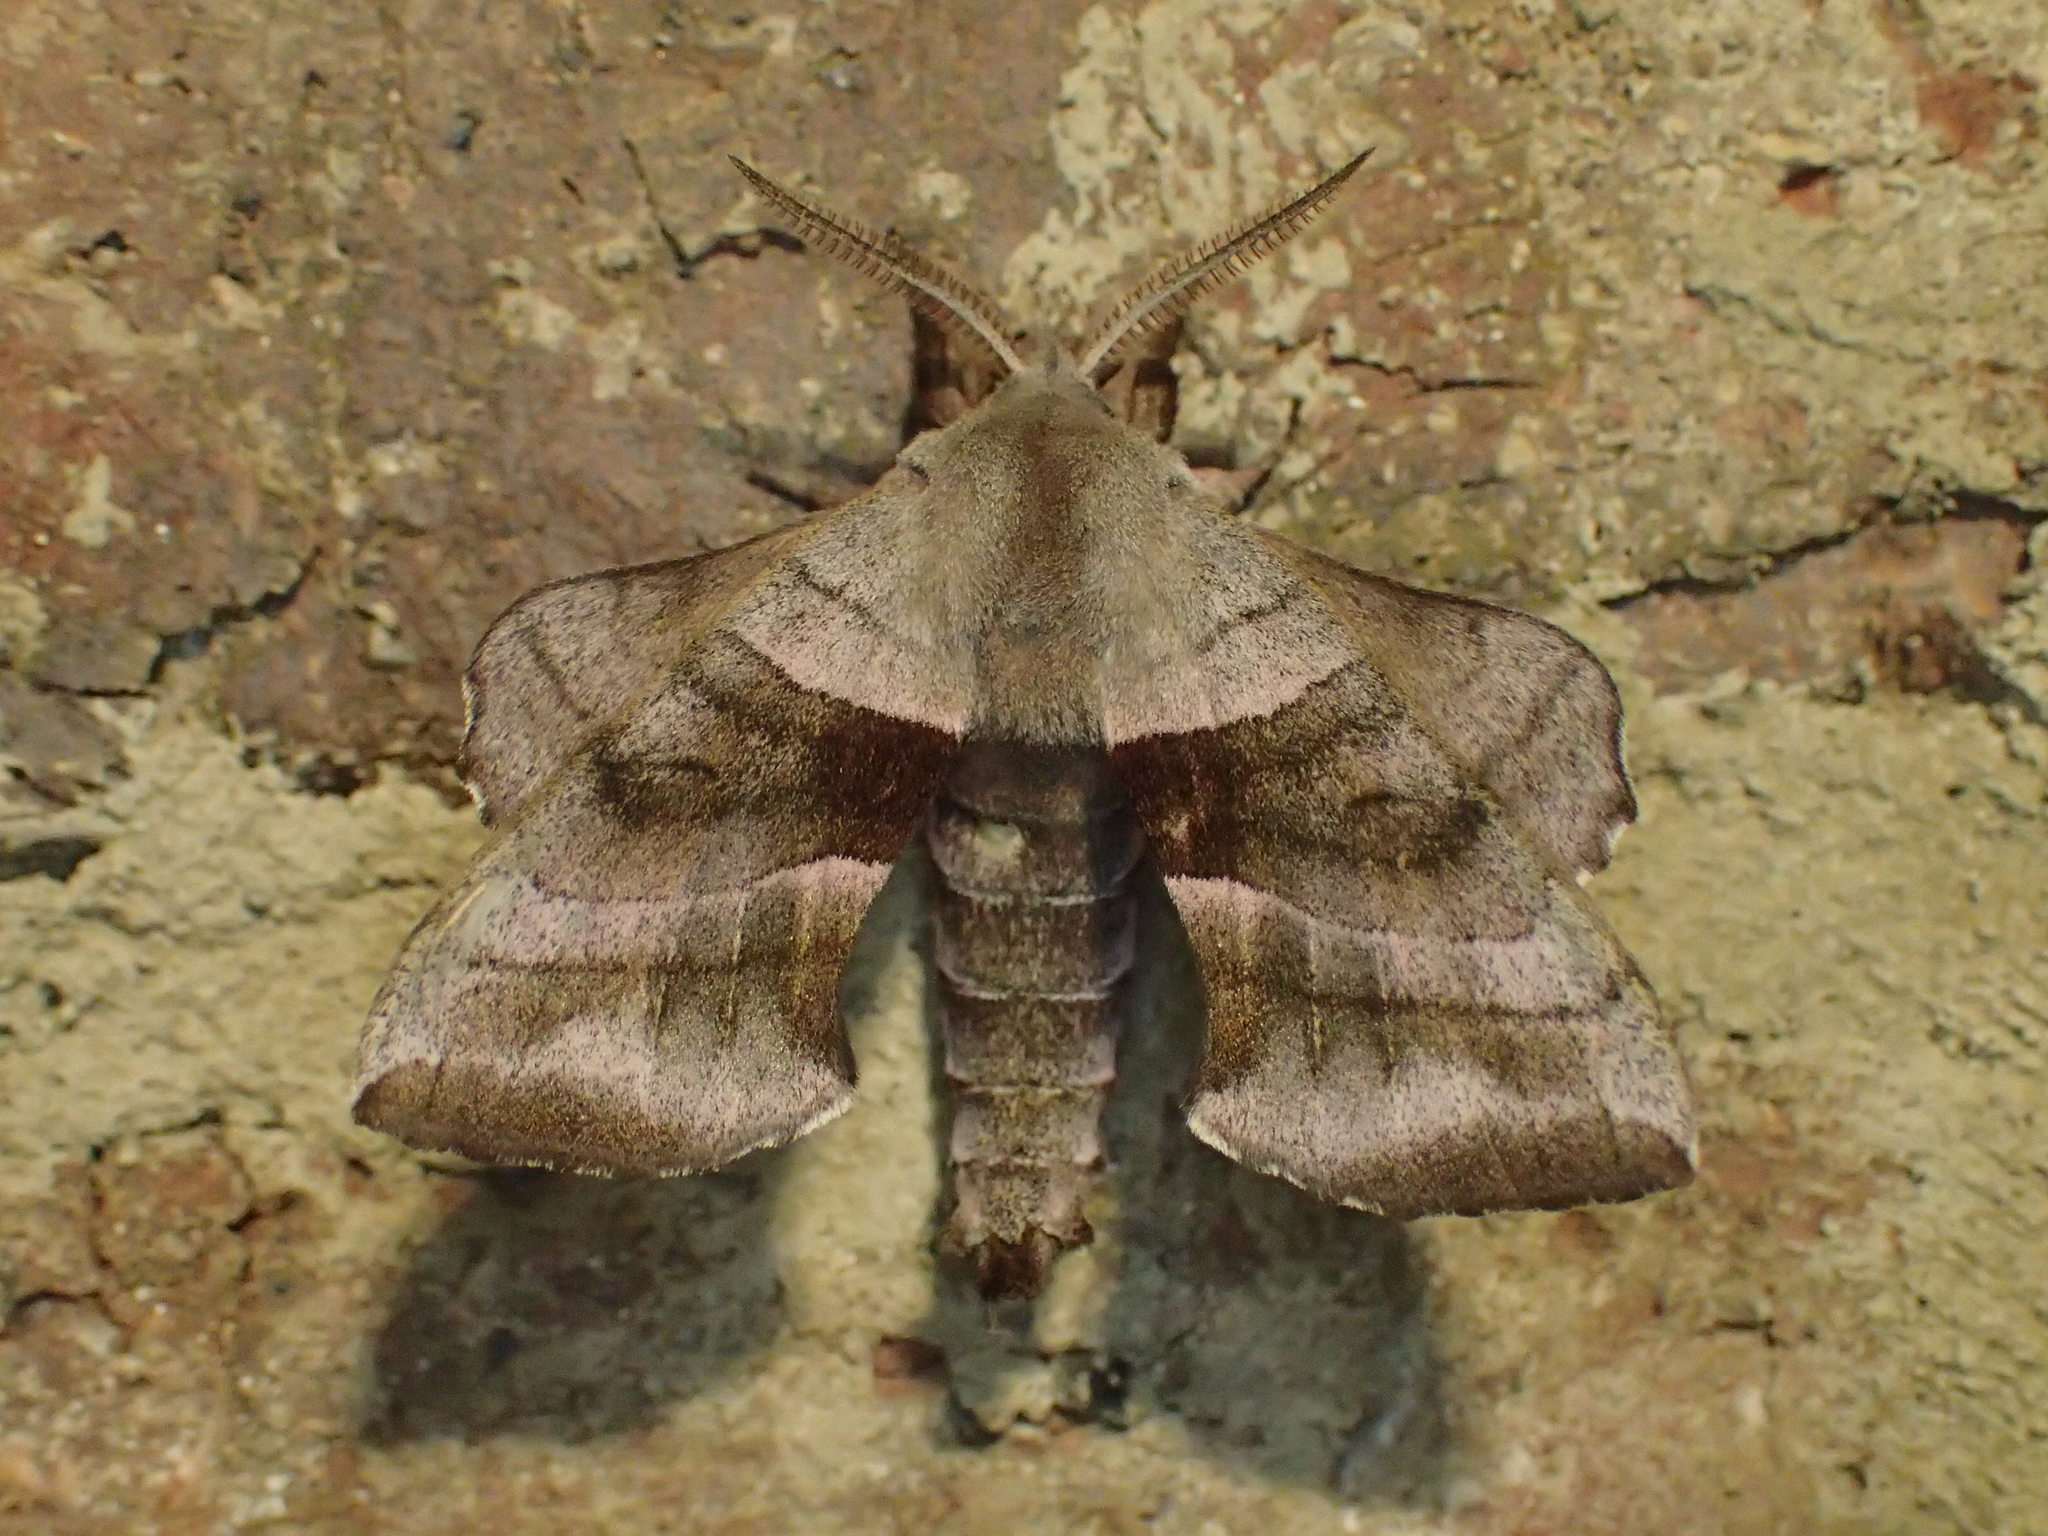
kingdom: Animalia
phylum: Arthropoda
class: Insecta
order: Lepidoptera
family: Sphingidae
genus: Amorpha
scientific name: Amorpha juglandis
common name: Walnut sphinx
